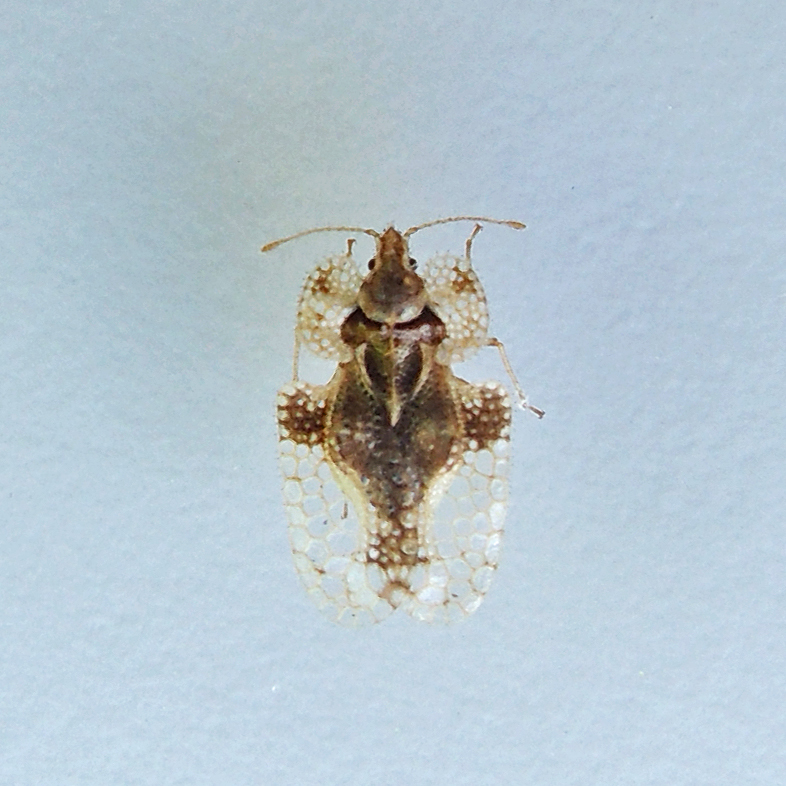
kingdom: Animalia
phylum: Arthropoda
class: Insecta
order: Hemiptera
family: Tingidae
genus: Corythucha
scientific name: Corythucha ulmi
